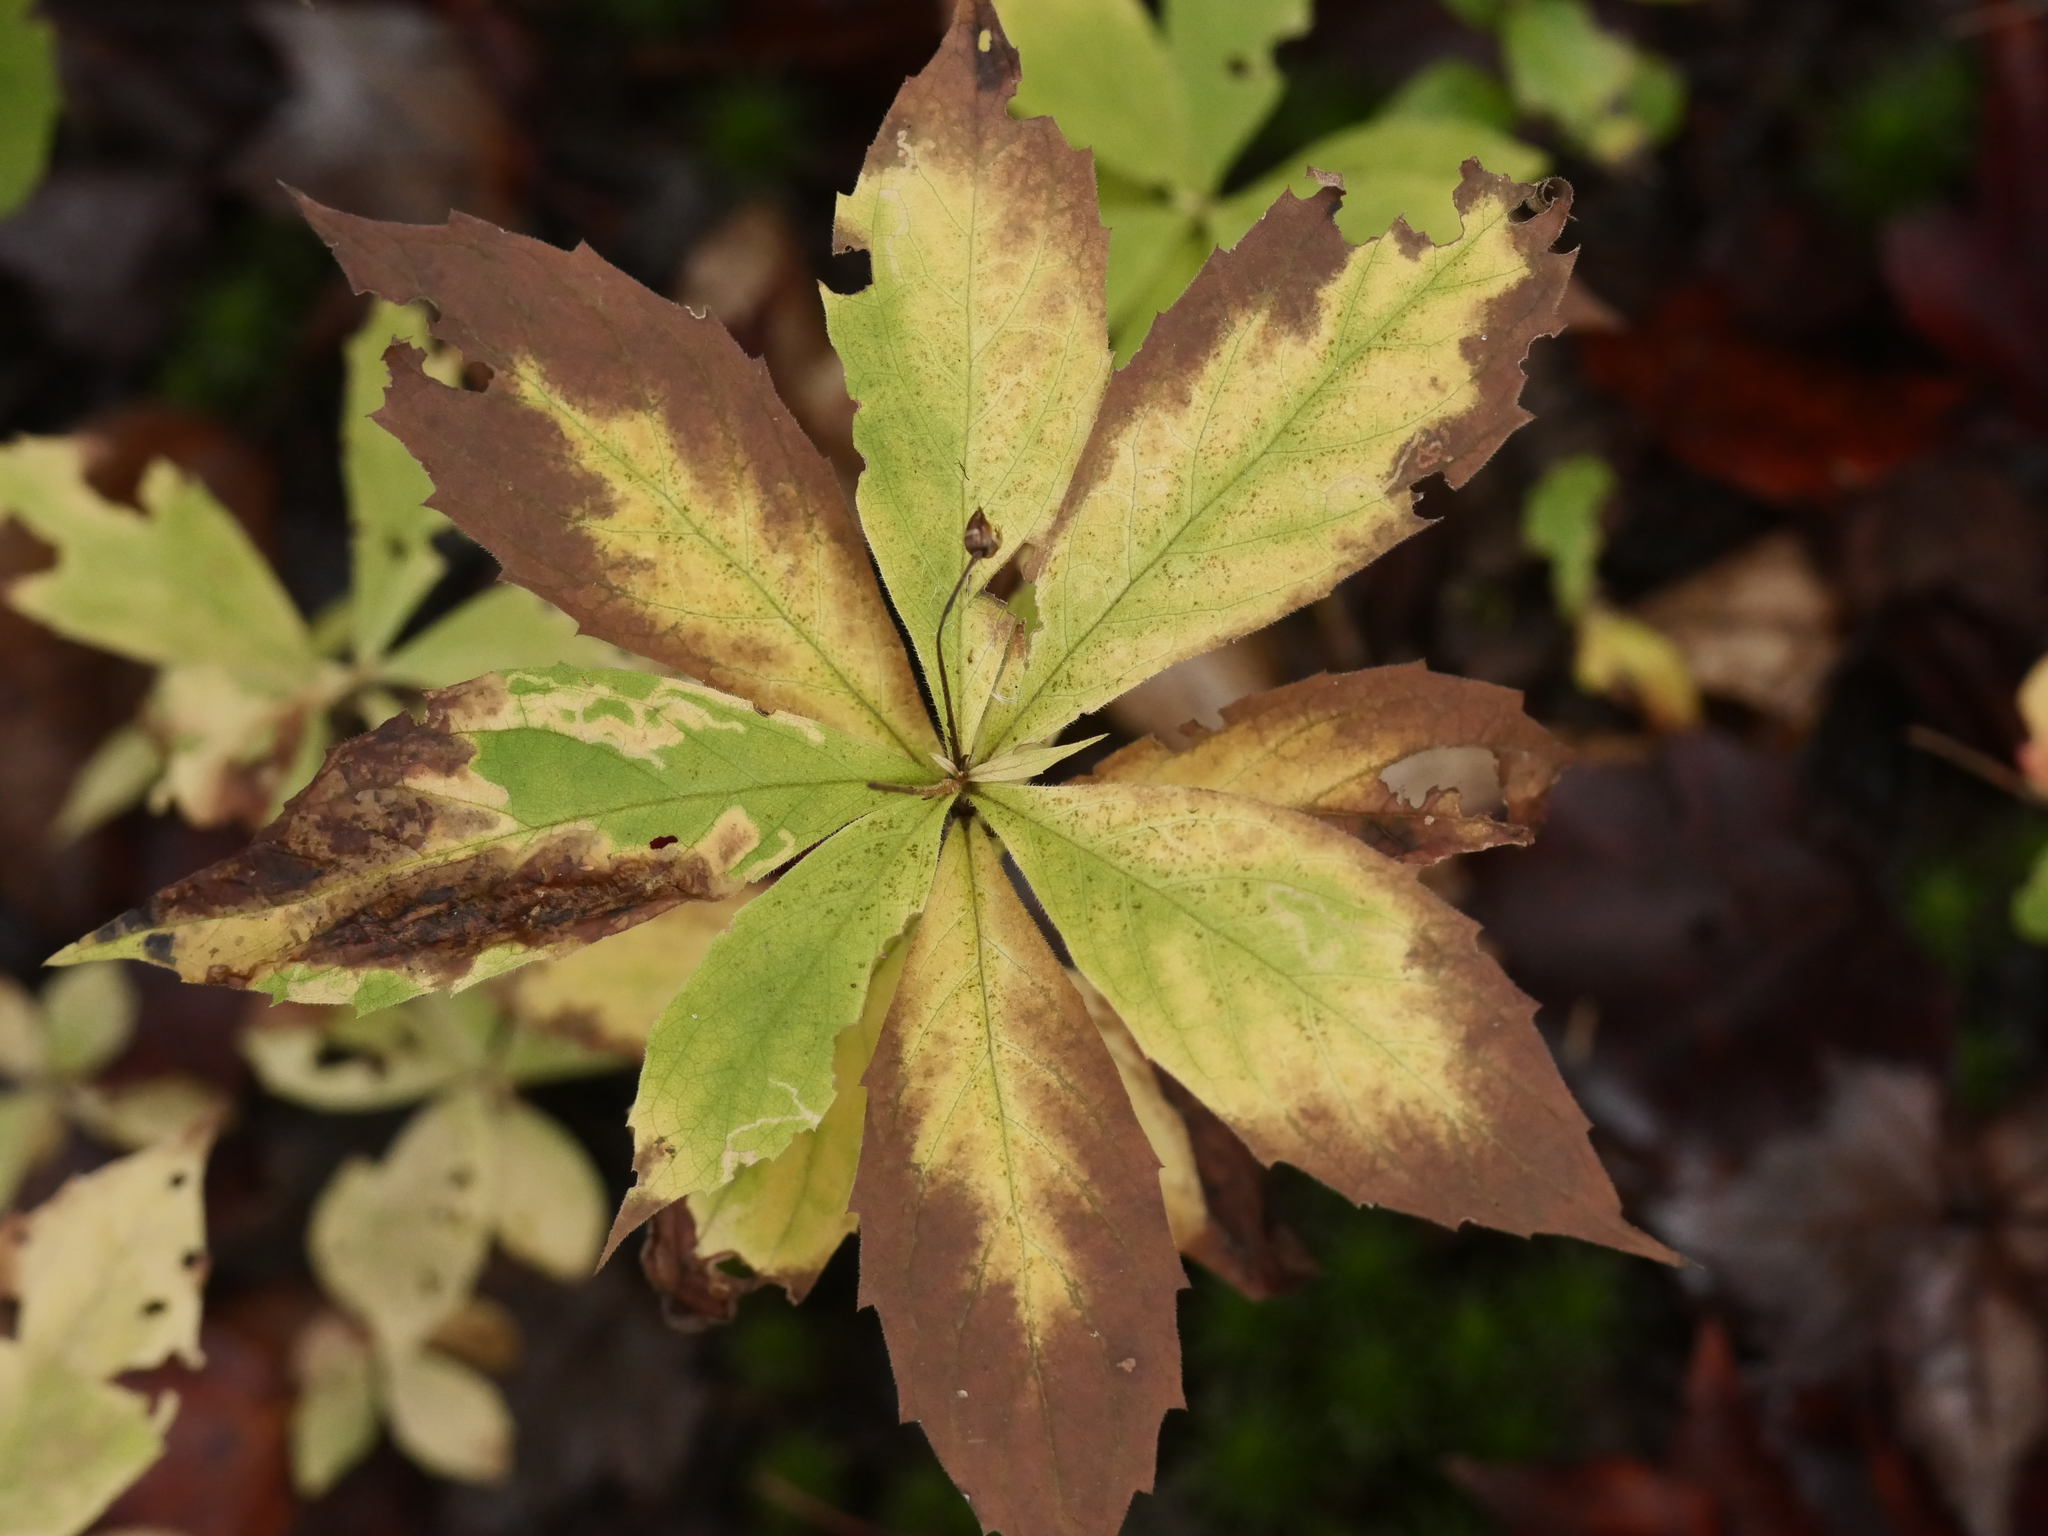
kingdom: Plantae
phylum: Tracheophyta
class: Magnoliopsida
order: Asterales
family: Asteraceae
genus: Oclemena
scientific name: Oclemena acuminata
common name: Mountain aster
